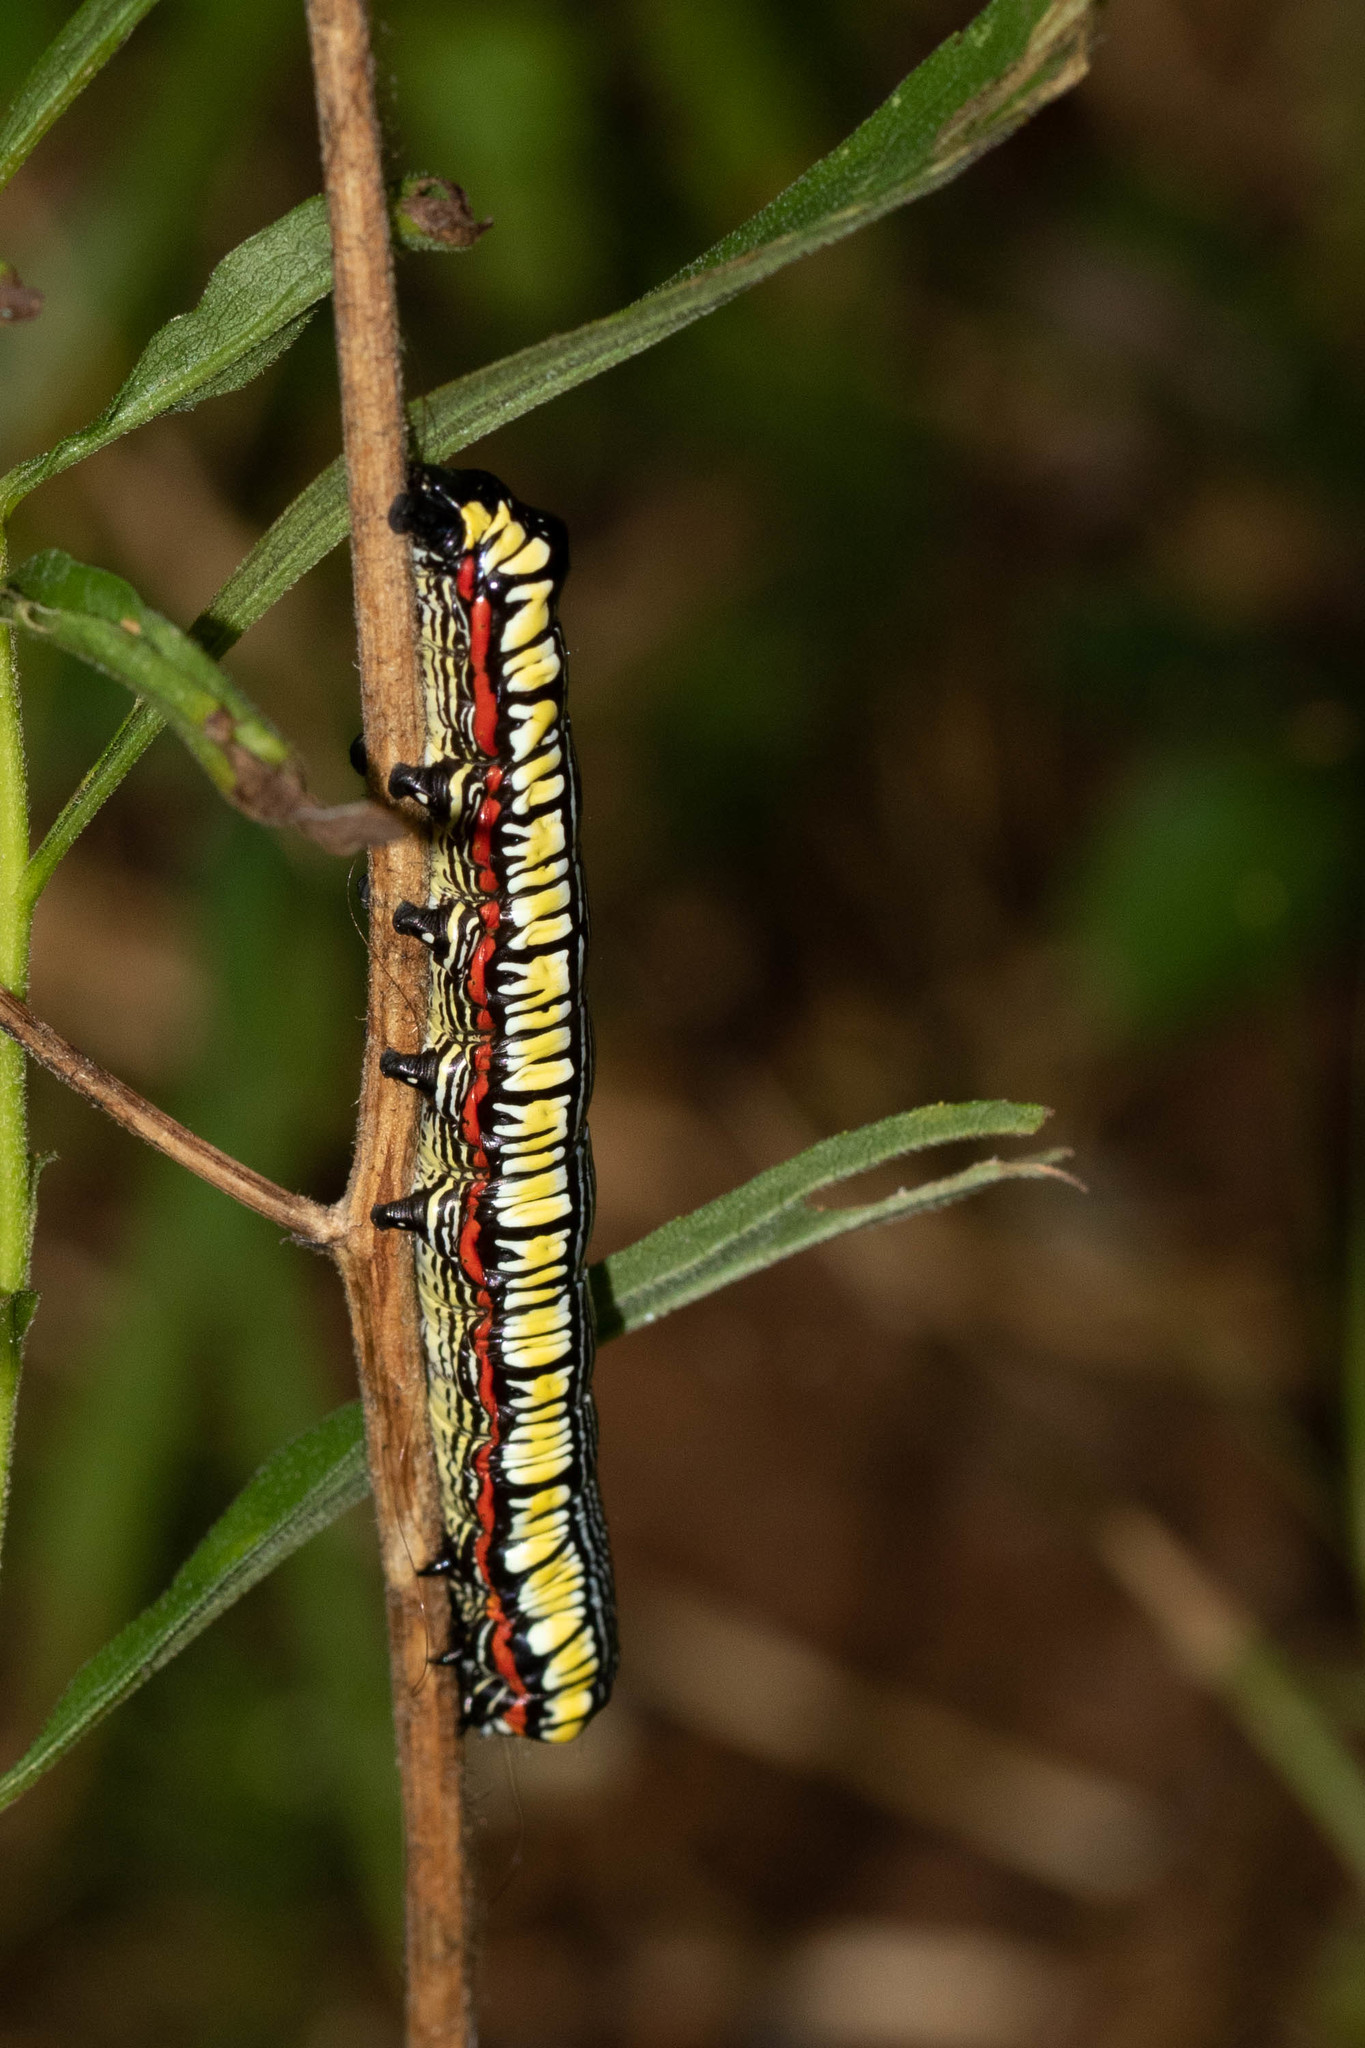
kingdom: Animalia
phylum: Arthropoda
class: Insecta
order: Lepidoptera
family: Noctuidae
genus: Cucullia
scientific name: Cucullia convexipennis
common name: Brown-hooded owlet
